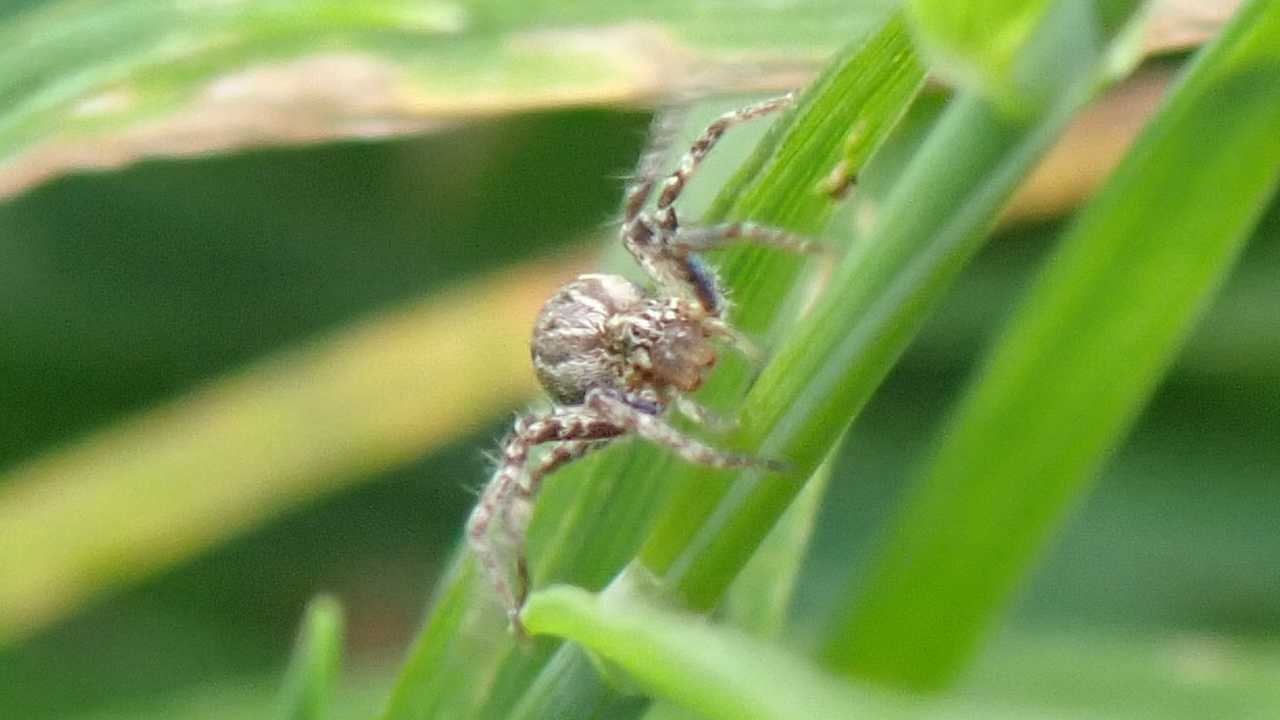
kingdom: Animalia
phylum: Arthropoda
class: Arachnida
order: Araneae
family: Pisauridae
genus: Pisaura
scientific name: Pisaura mirabilis
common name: Tent spider
